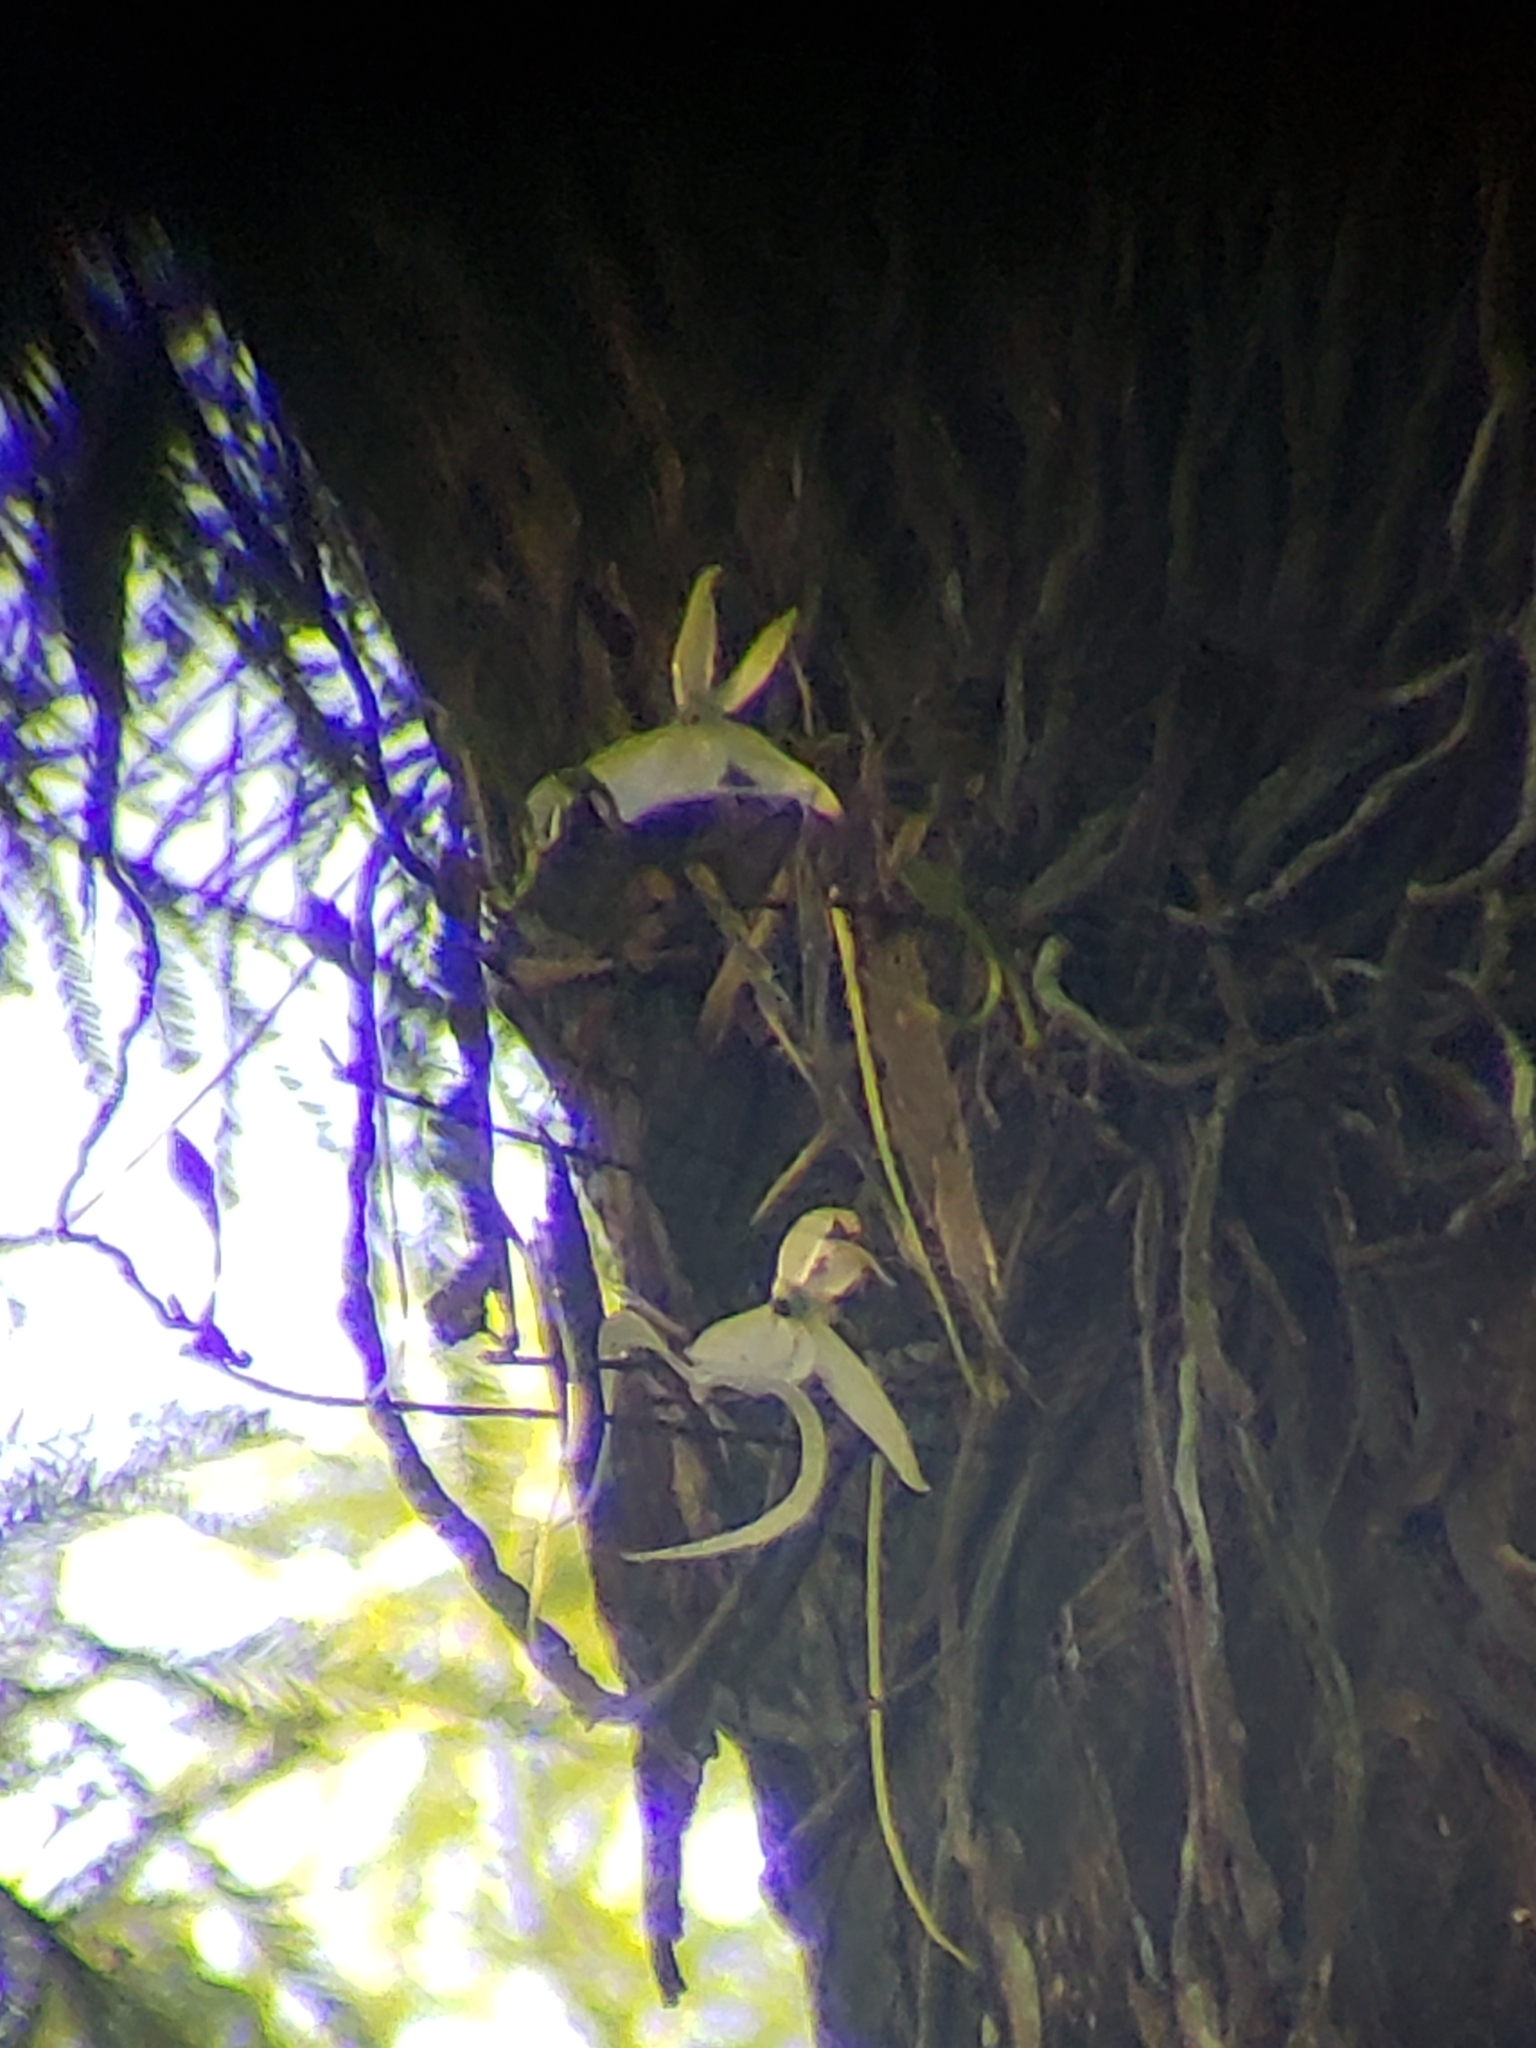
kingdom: Plantae
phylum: Tracheophyta
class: Liliopsida
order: Asparagales
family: Orchidaceae
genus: Dendrophylax
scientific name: Dendrophylax lindenii
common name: Palmpolly
